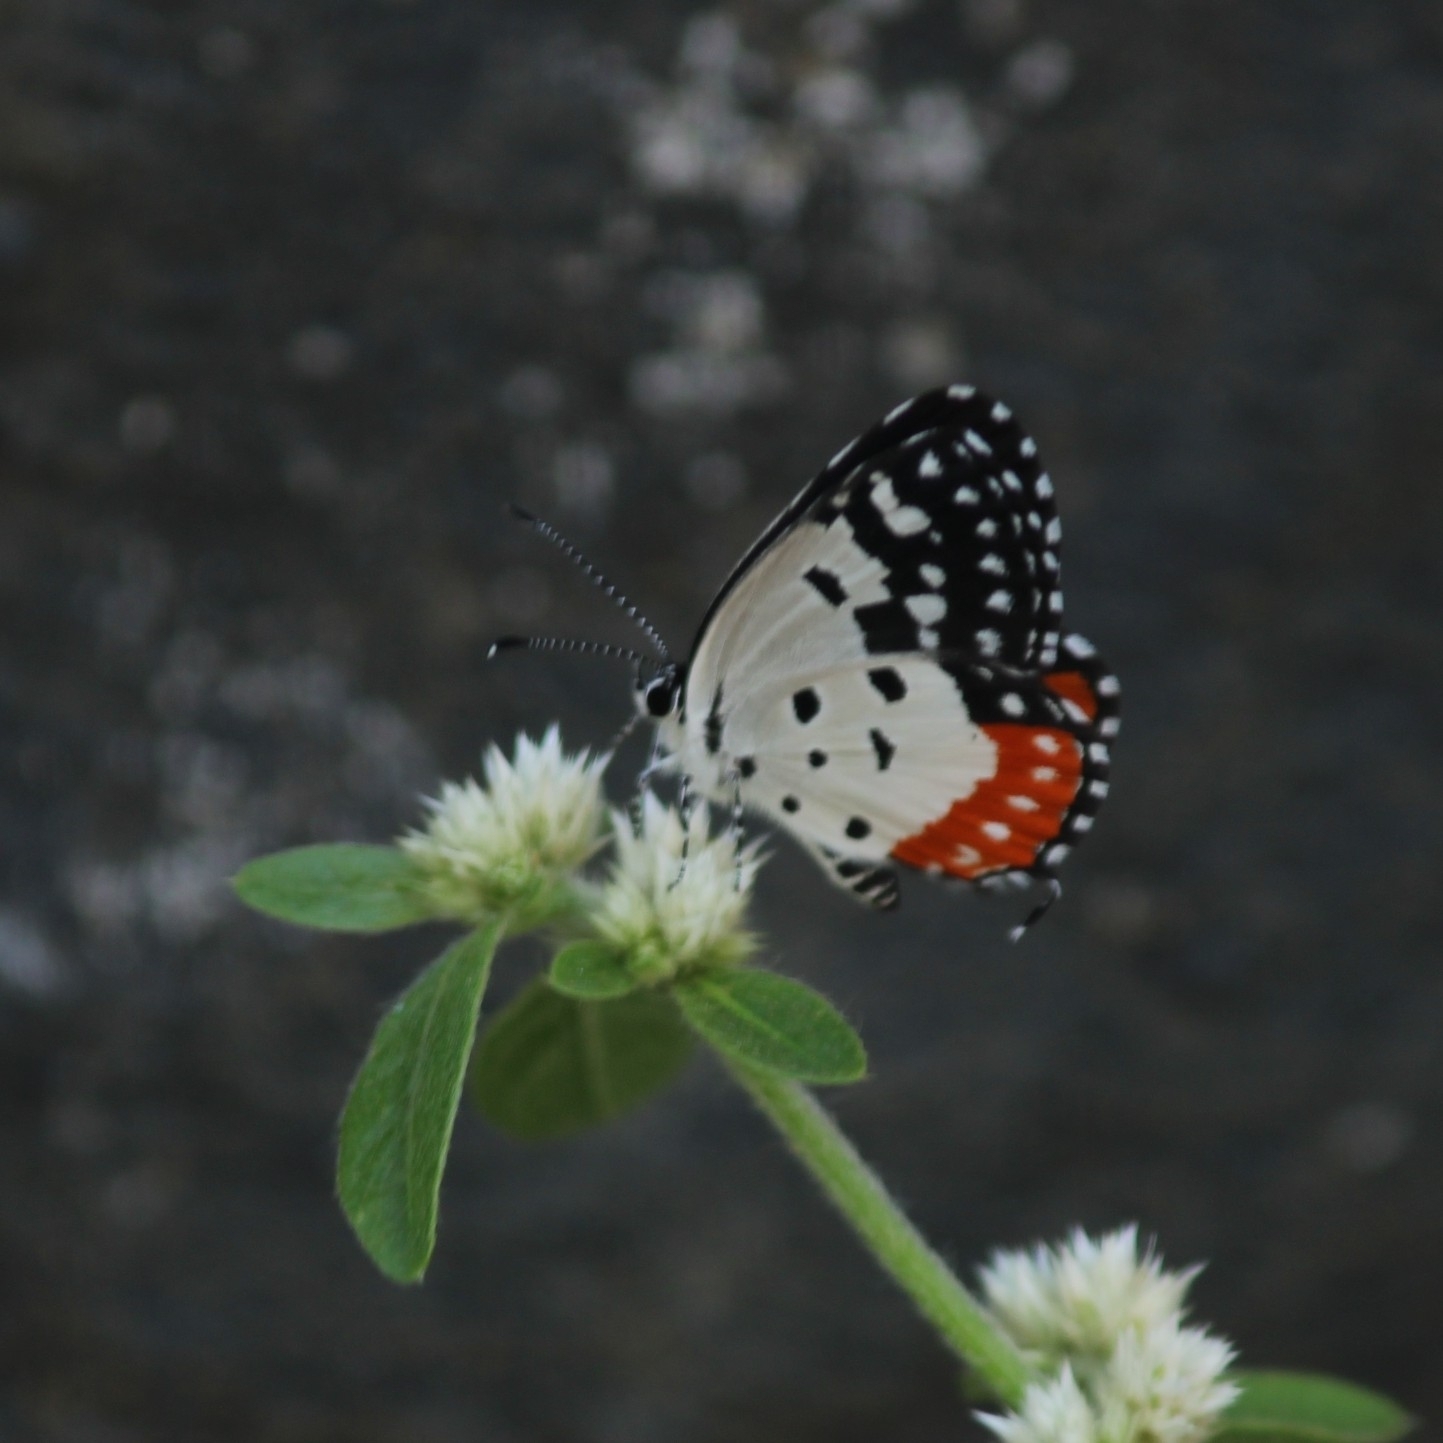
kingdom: Animalia
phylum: Arthropoda
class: Insecta
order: Lepidoptera
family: Lycaenidae
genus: Talicada
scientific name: Talicada nyseus
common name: Red pierrot
